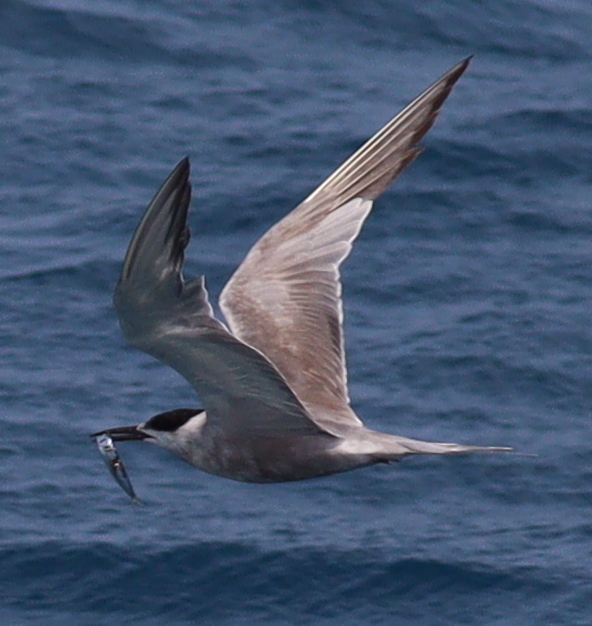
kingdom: Animalia
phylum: Chordata
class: Aves
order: Charadriiformes
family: Laridae
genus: Sterna
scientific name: Sterna repressa
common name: White-cheeked tern
